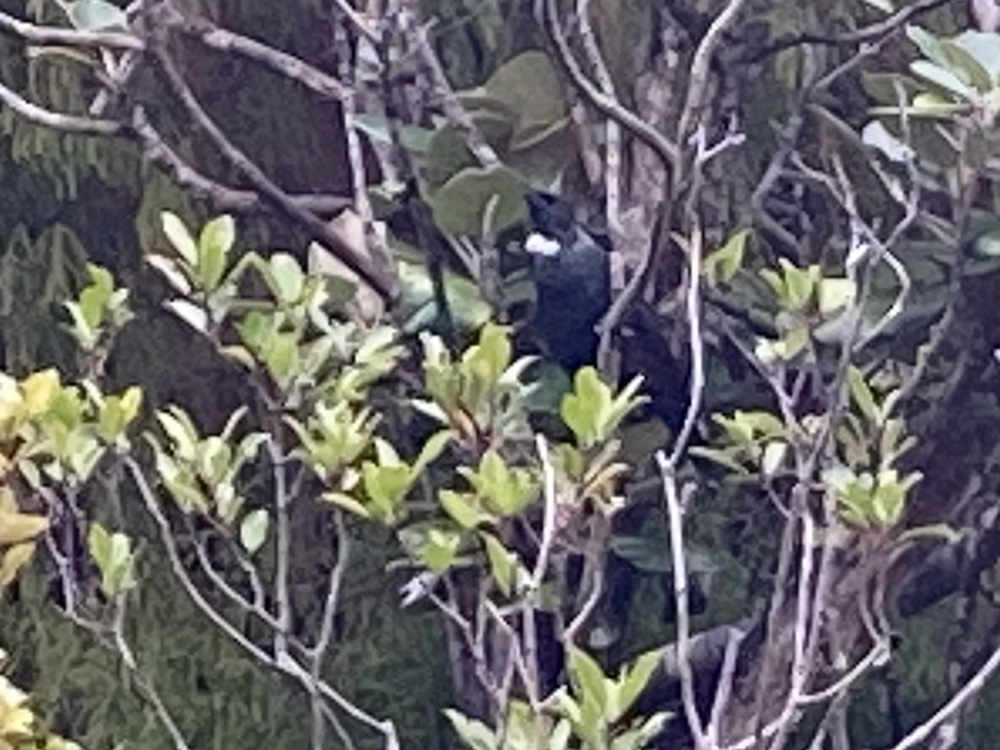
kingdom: Animalia
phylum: Chordata
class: Aves
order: Passeriformes
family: Meliphagidae
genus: Prosthemadera
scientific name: Prosthemadera novaeseelandiae
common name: Tui
